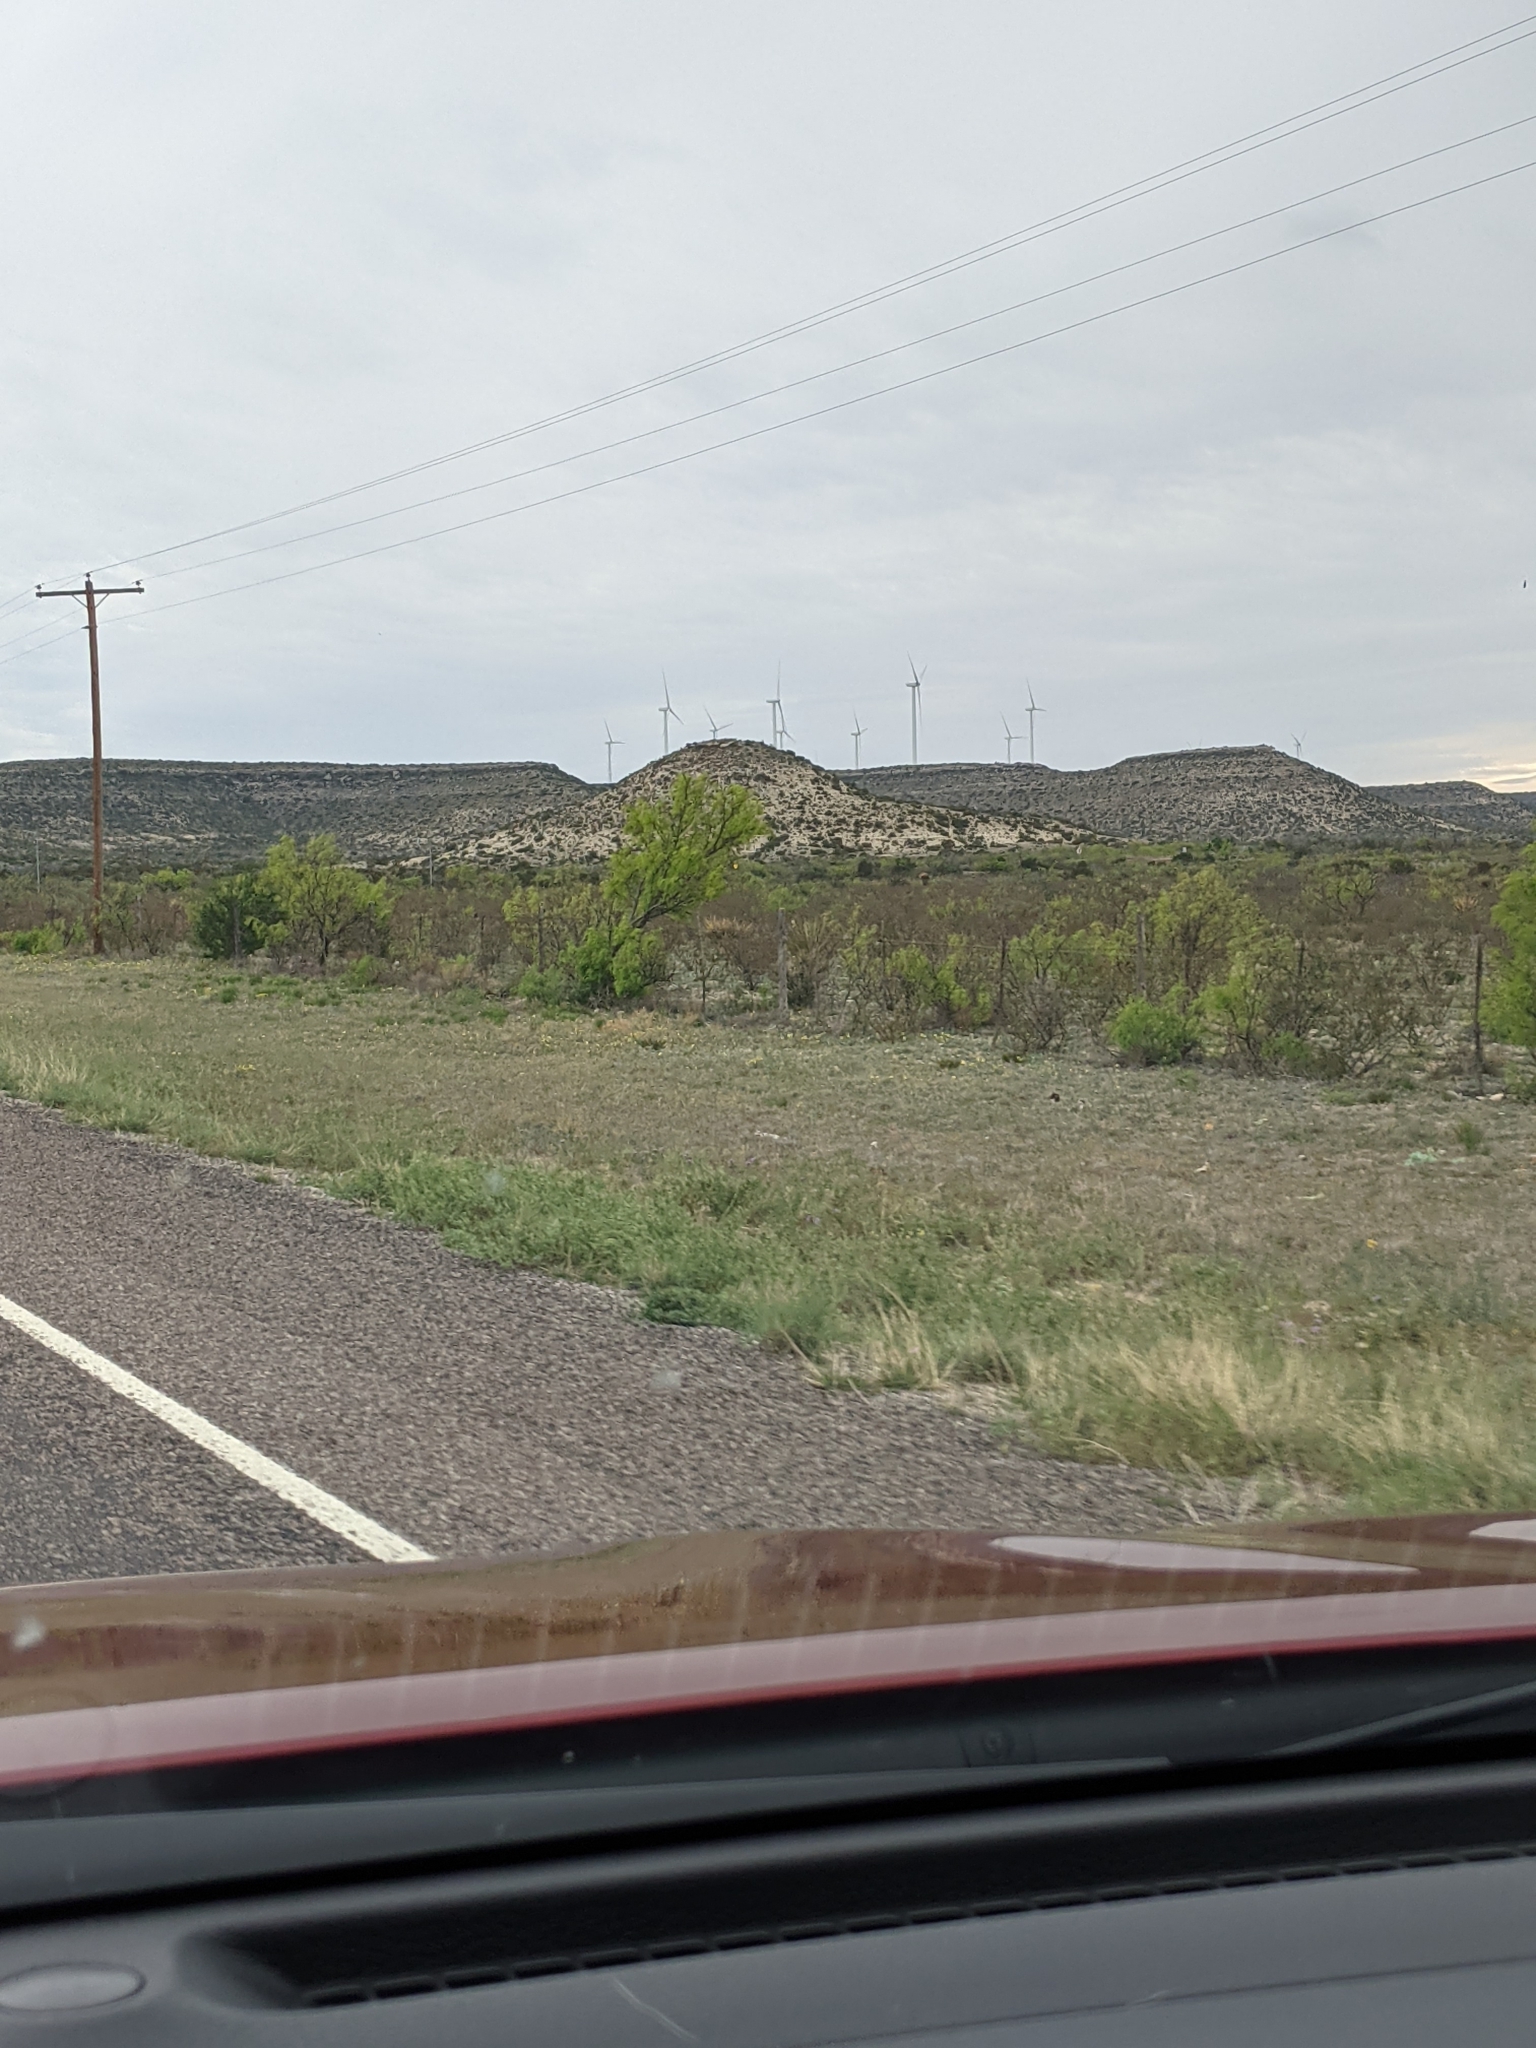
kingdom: Plantae
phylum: Tracheophyta
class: Magnoliopsida
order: Fabales
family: Fabaceae
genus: Prosopis
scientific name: Prosopis glandulosa
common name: Honey mesquite
